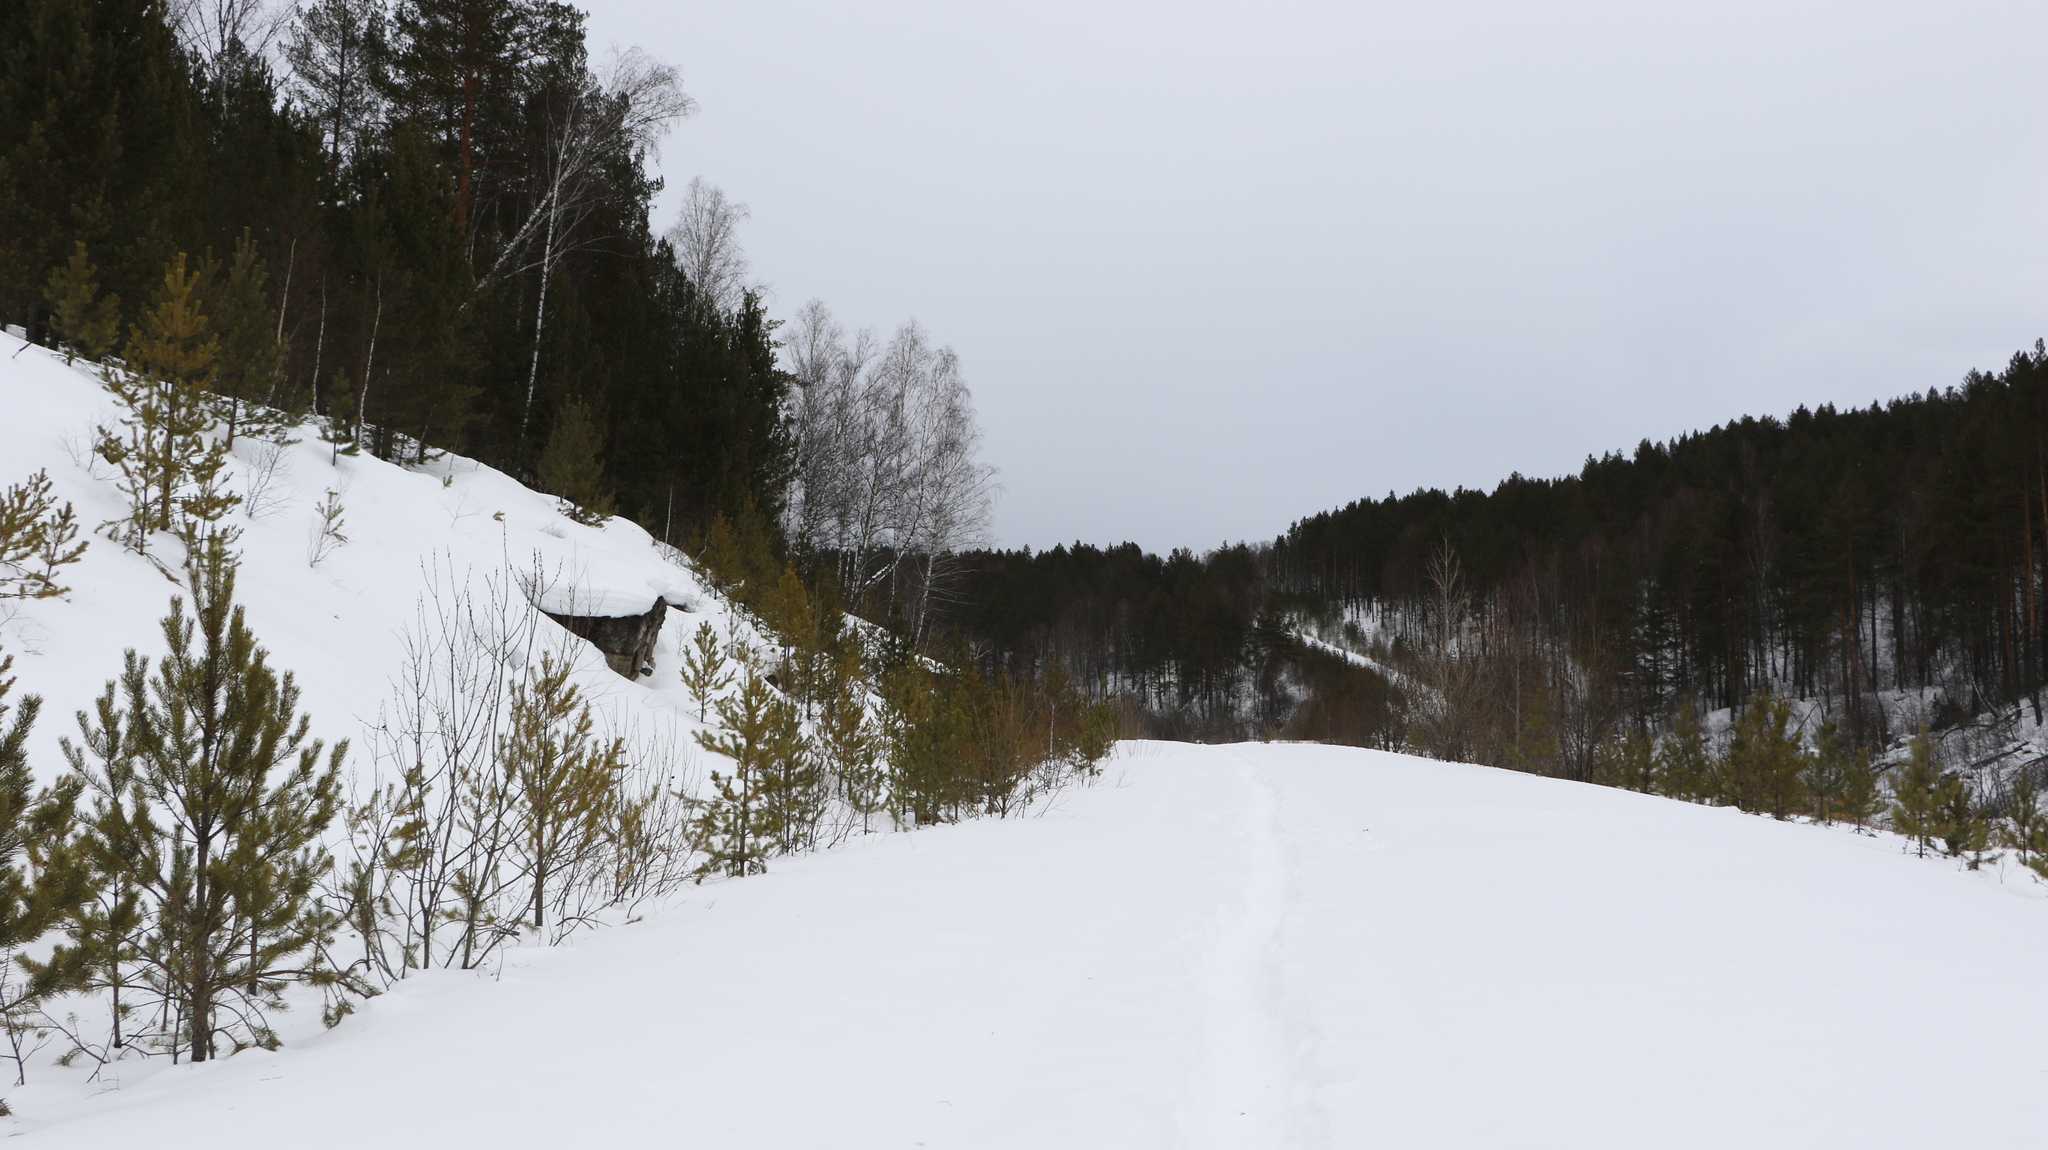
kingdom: Plantae
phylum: Tracheophyta
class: Pinopsida
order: Pinales
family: Pinaceae
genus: Pinus
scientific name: Pinus sylvestris
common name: Scots pine
